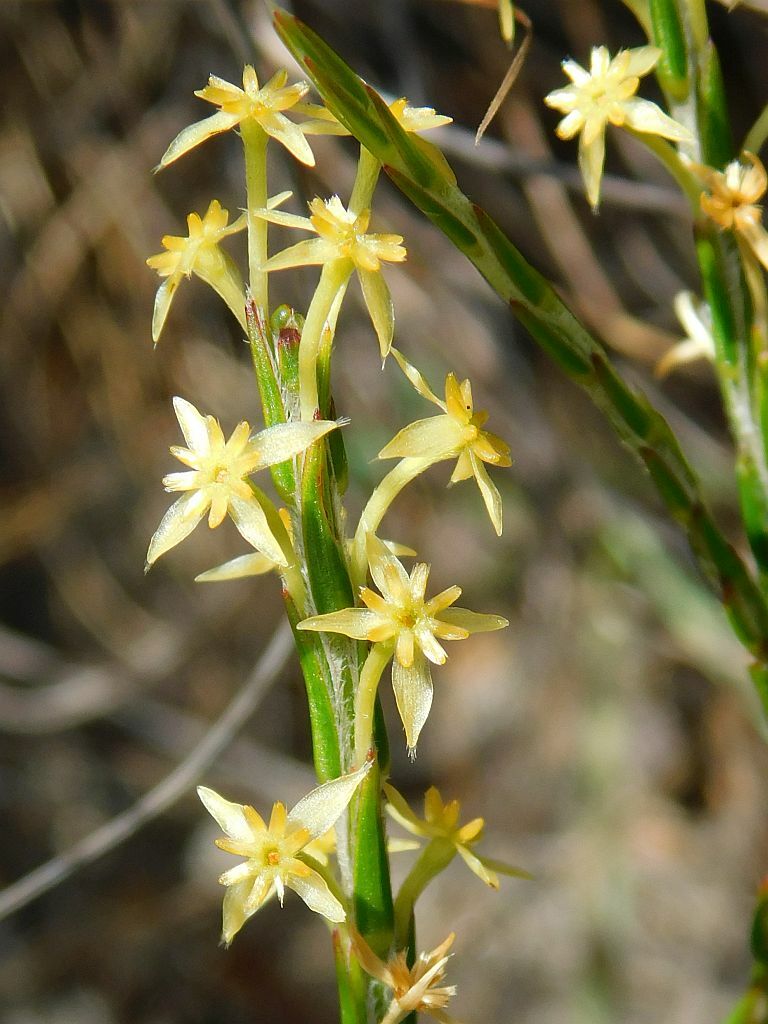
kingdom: Plantae
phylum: Tracheophyta
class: Magnoliopsida
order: Malvales
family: Thymelaeaceae
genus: Struthiola
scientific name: Struthiola ciliata
